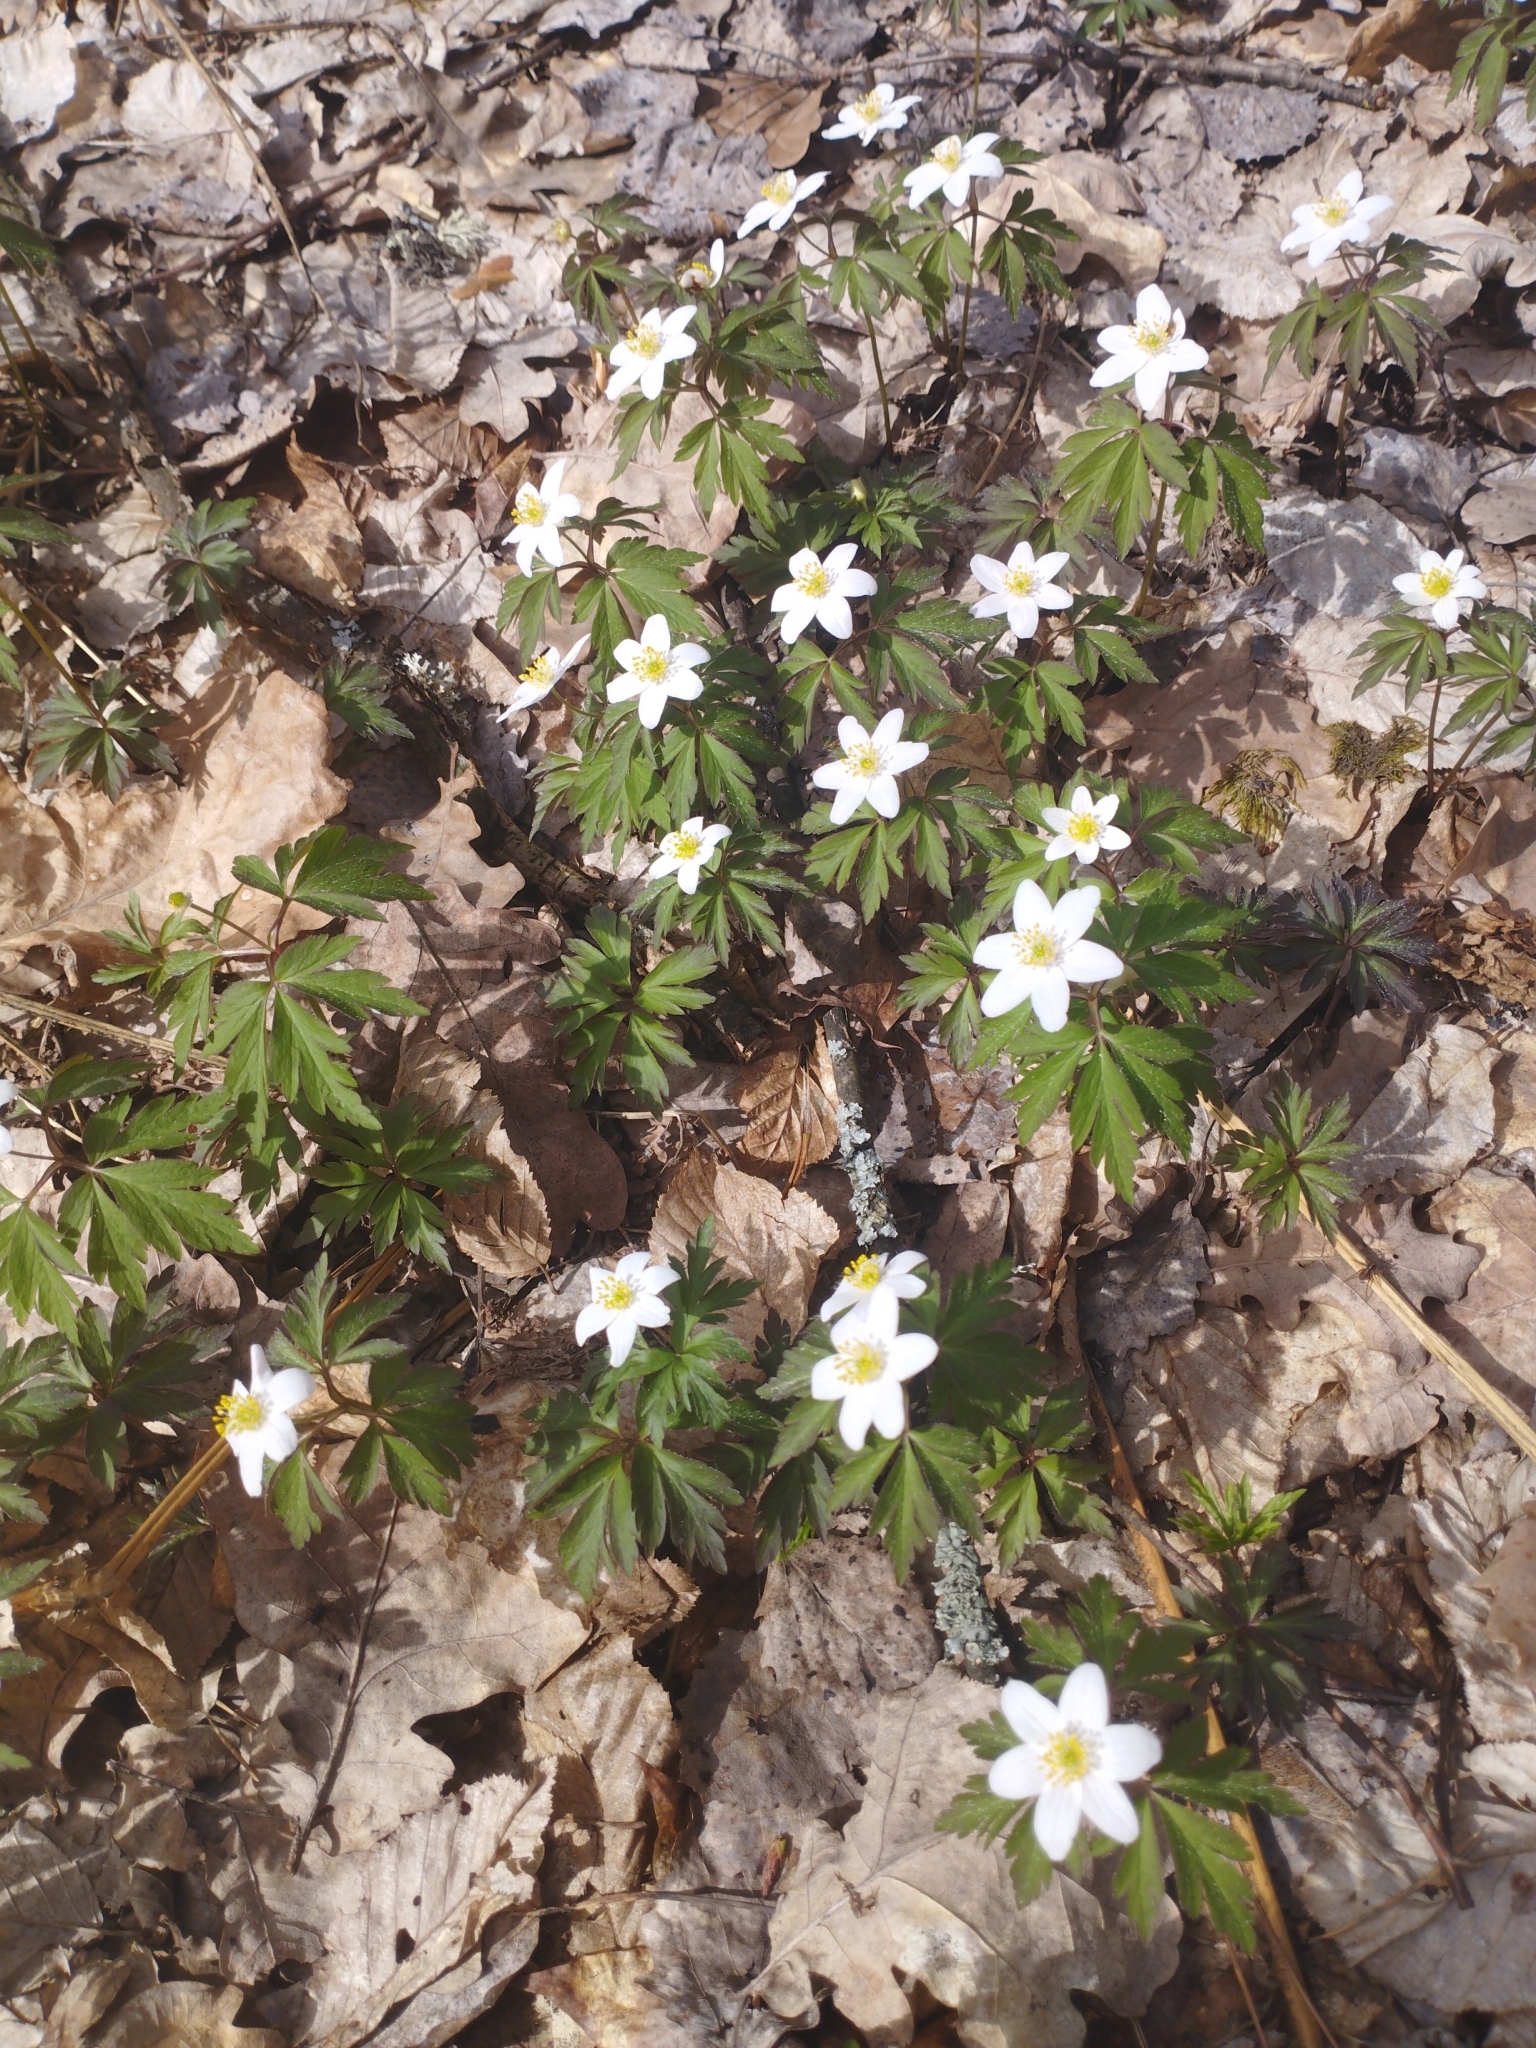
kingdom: Plantae
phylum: Tracheophyta
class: Magnoliopsida
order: Ranunculales
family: Ranunculaceae
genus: Anemone
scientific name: Anemone nemorosa
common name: Wood anemone
